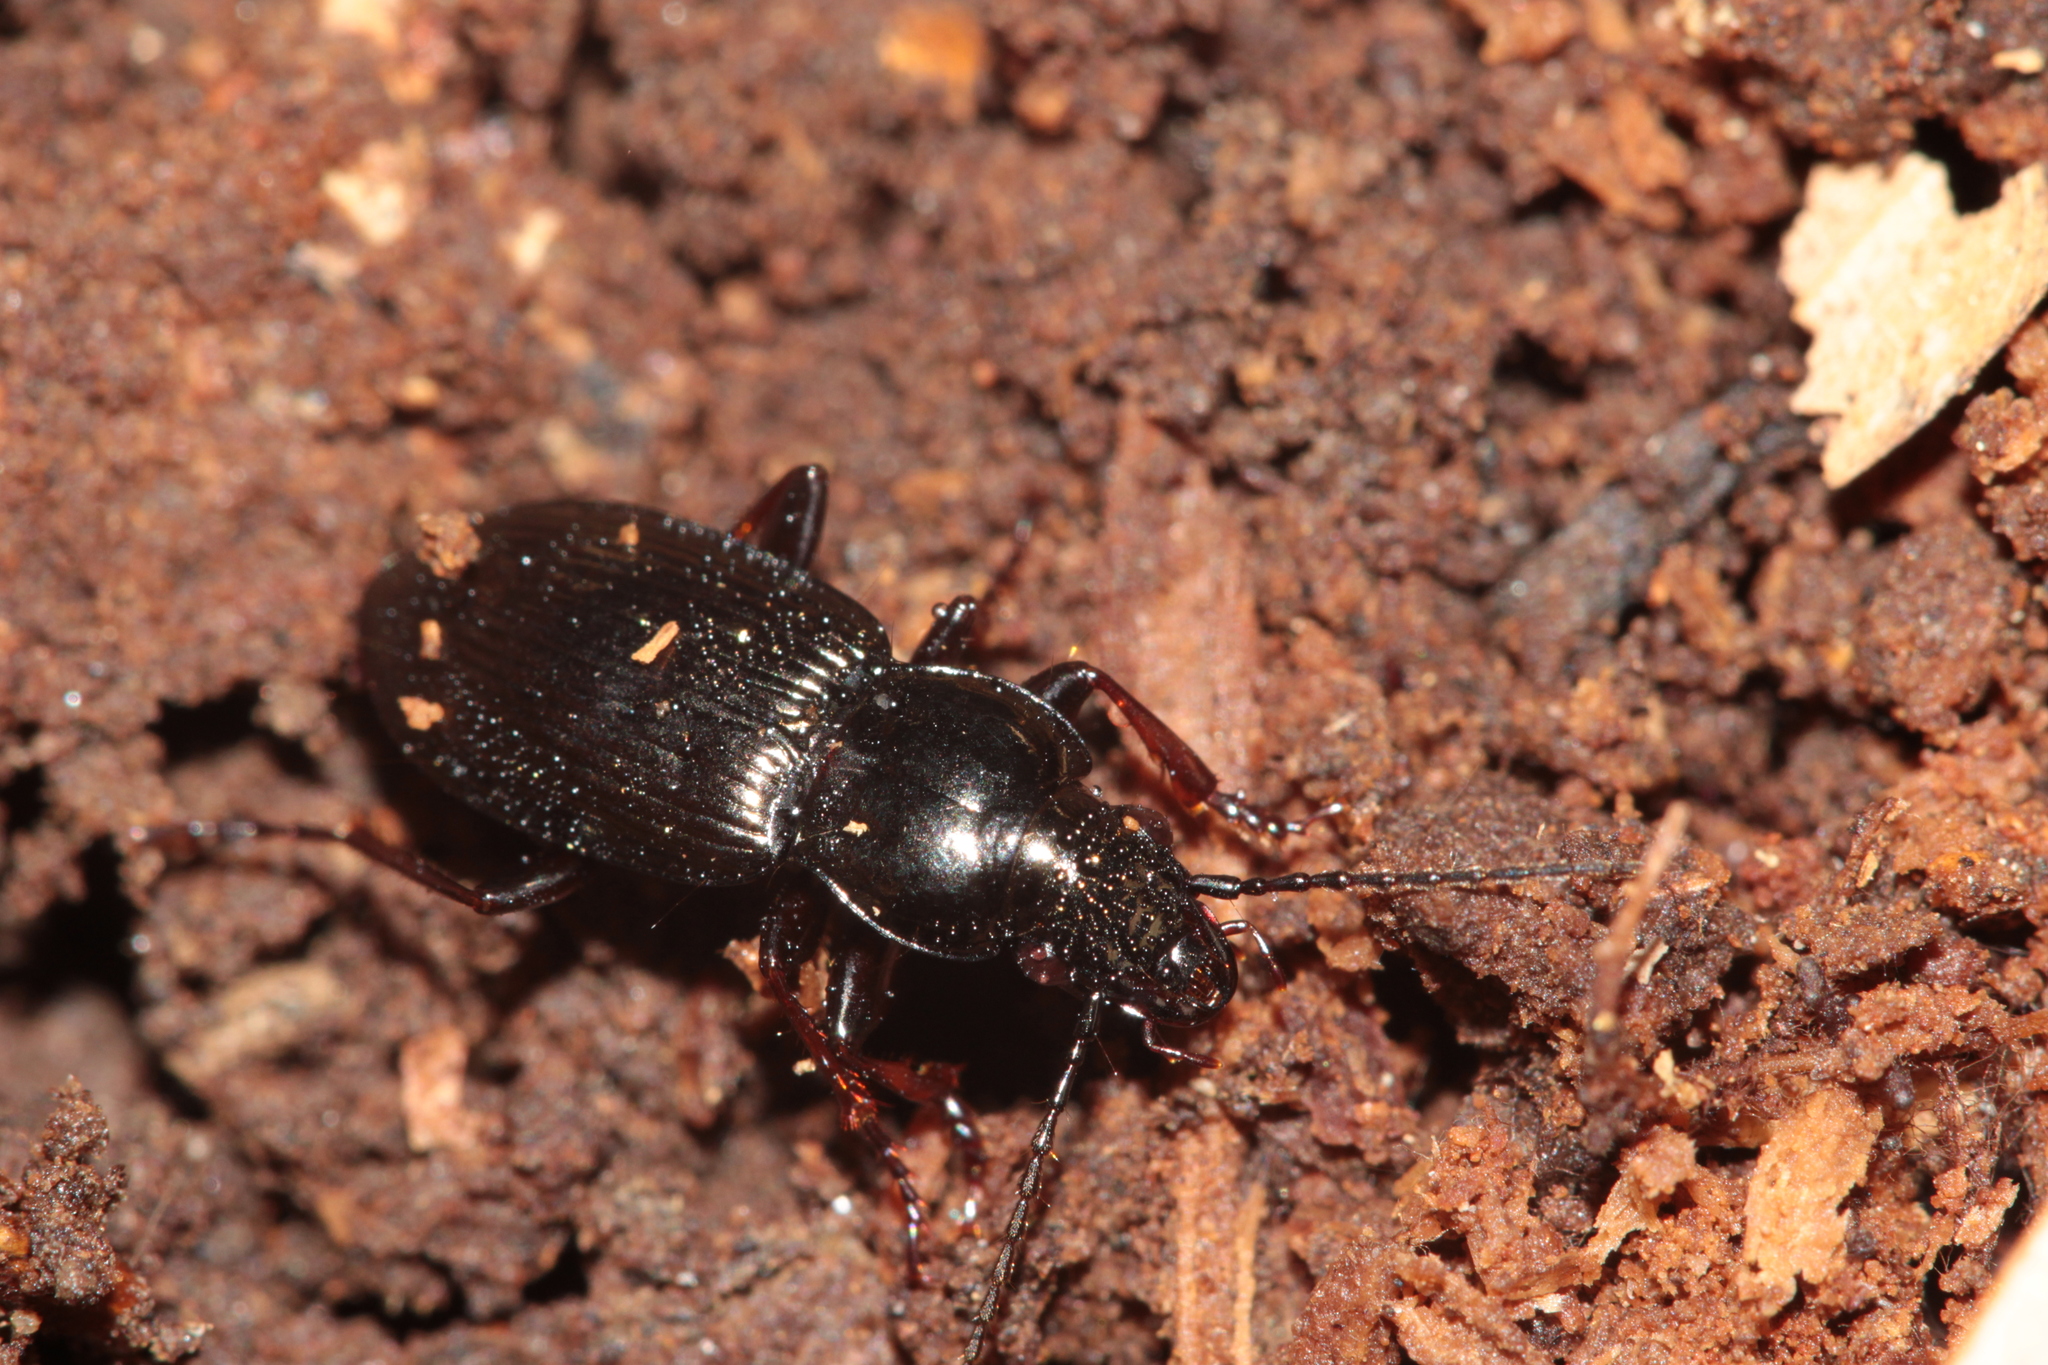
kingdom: Animalia
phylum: Arthropoda
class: Insecta
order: Coleoptera
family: Carabidae
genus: Pterostichus
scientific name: Pterostichus oblongopunctatus
